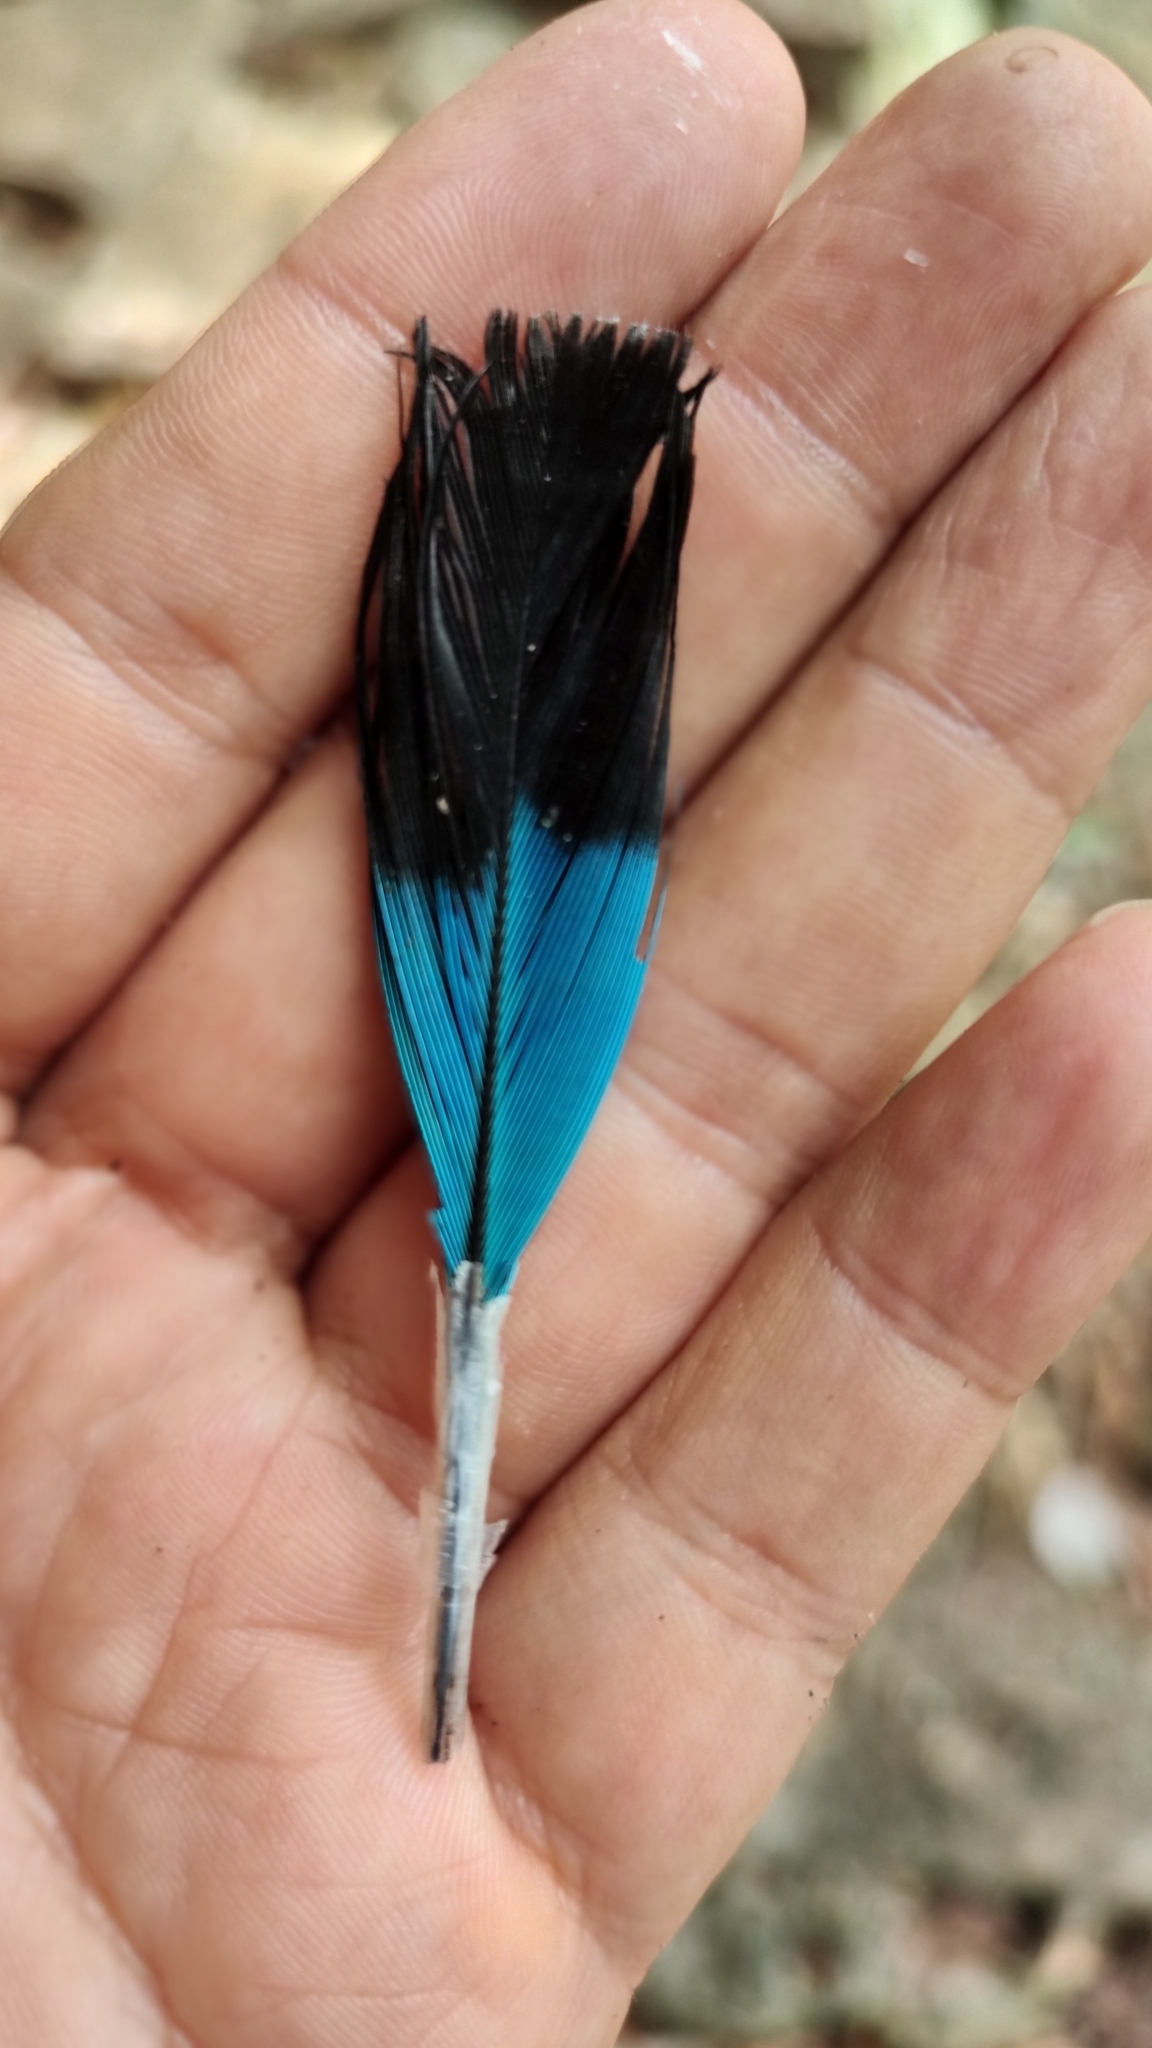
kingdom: Animalia
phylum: Chordata
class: Aves
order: Coraciiformes
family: Momotidae
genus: Eumomota
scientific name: Eumomota superciliosa
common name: Turquoise-browed motmot
